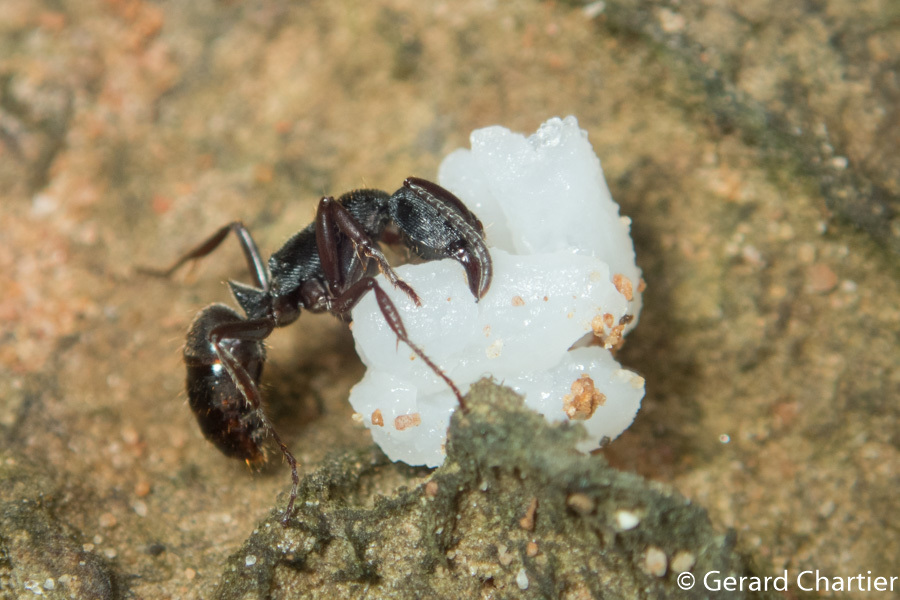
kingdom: Animalia
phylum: Arthropoda
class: Insecta
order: Hymenoptera
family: Formicidae
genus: Odontoponera
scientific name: Odontoponera denticulata
